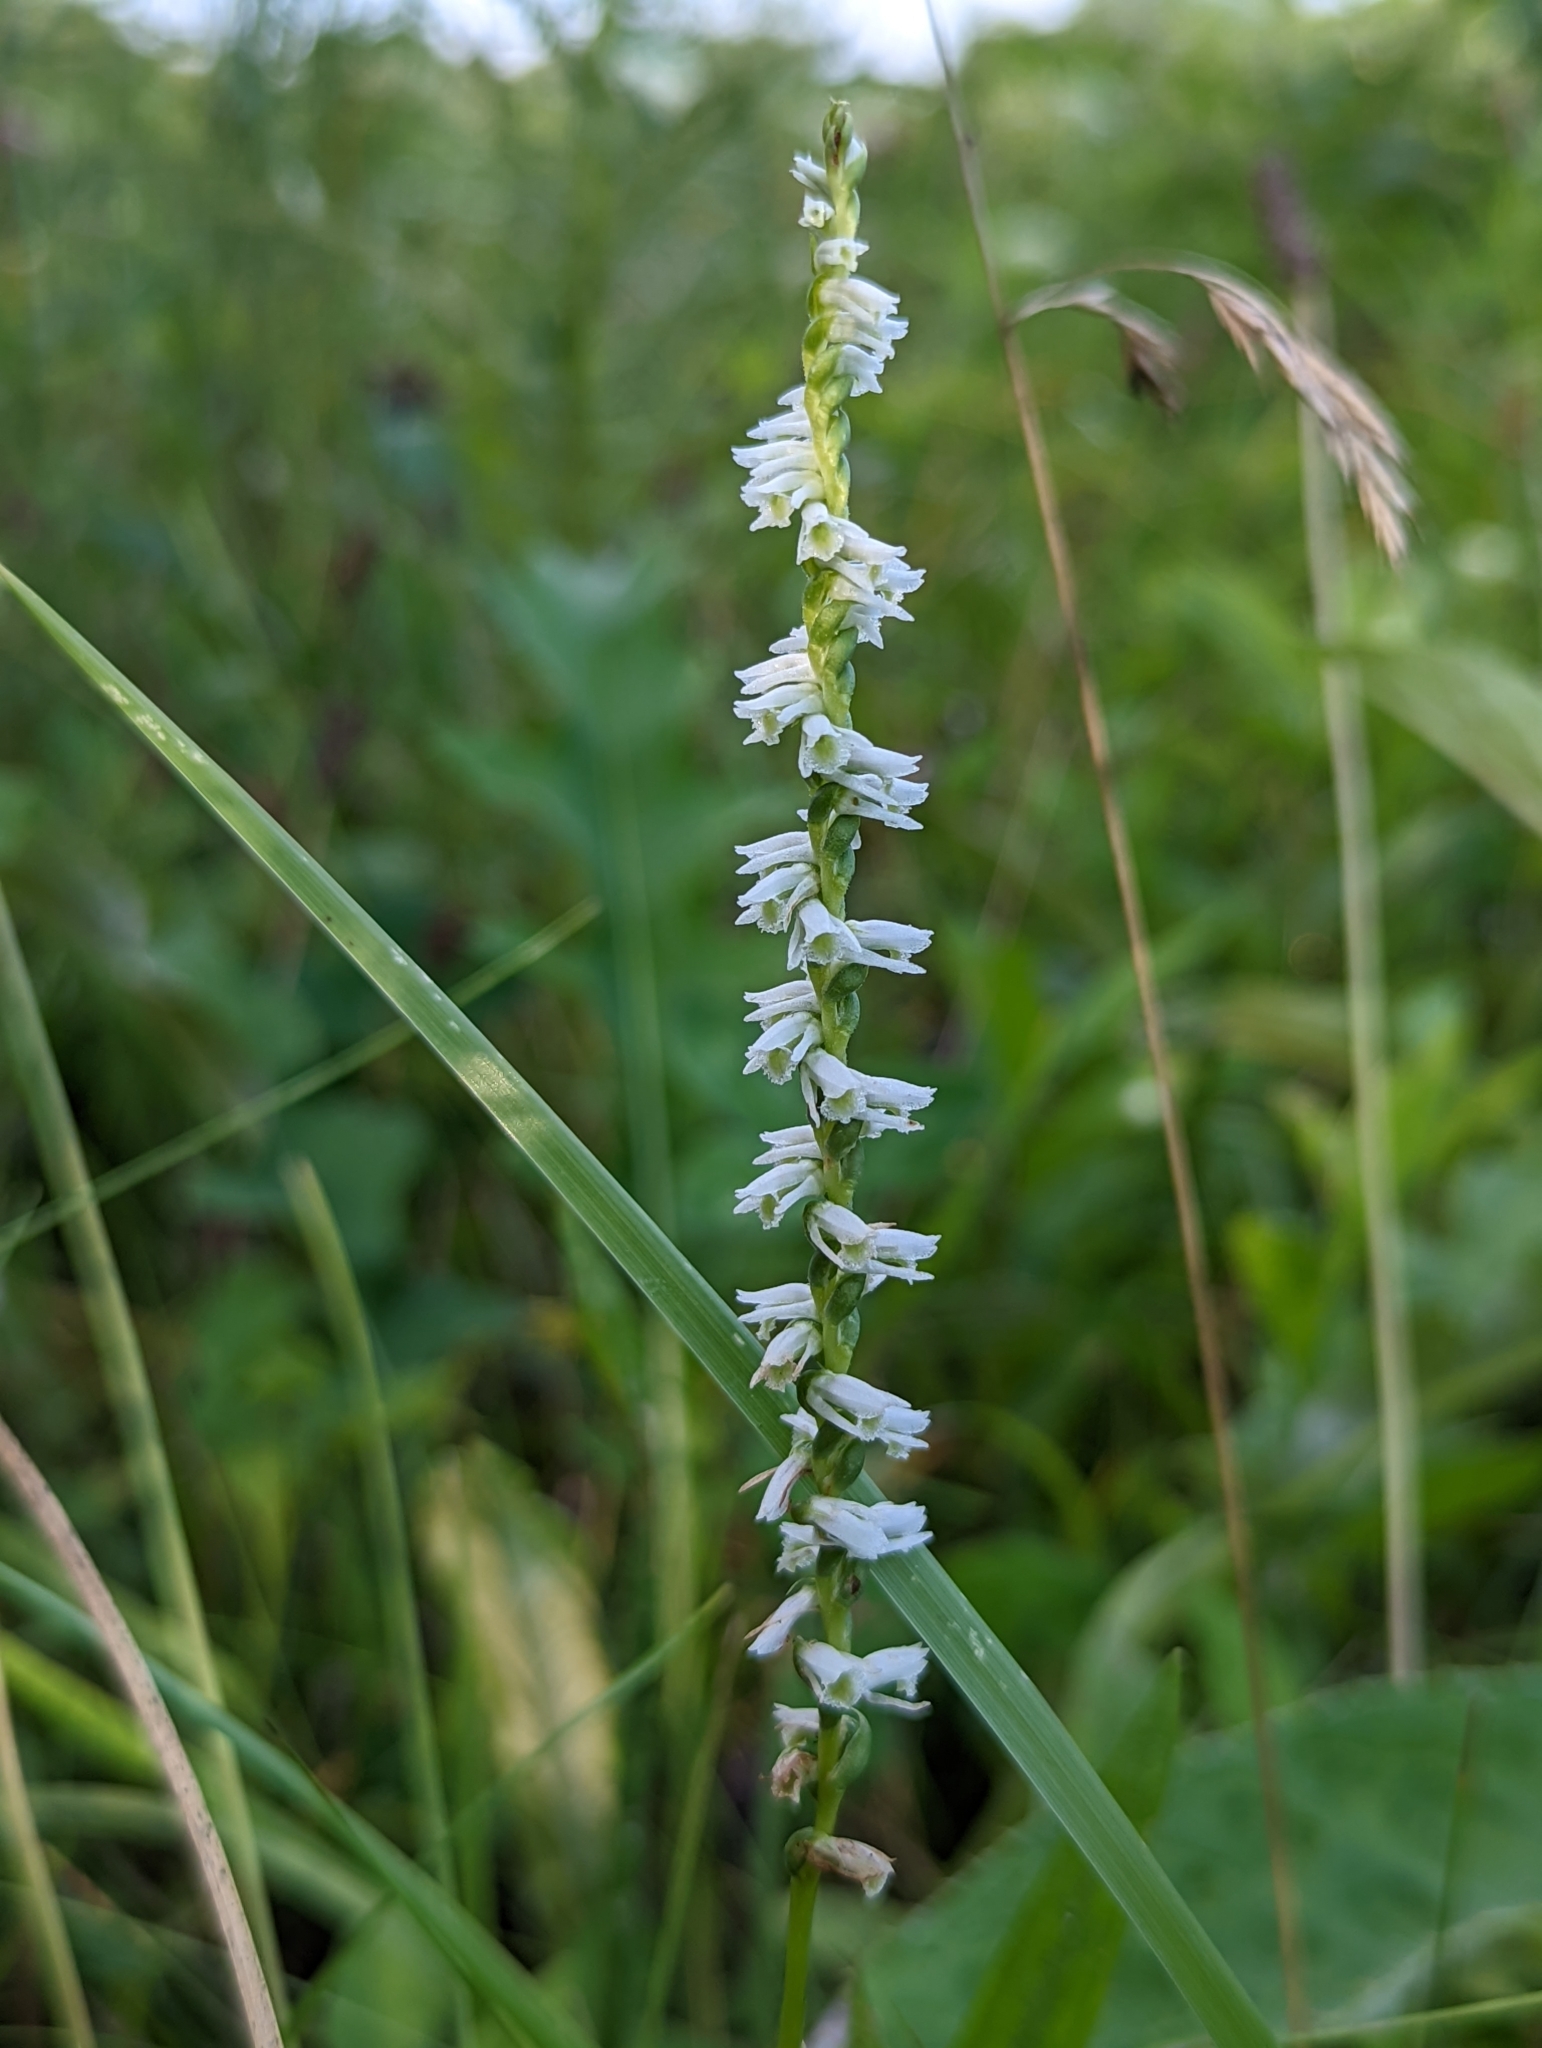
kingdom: Plantae
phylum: Tracheophyta
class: Liliopsida
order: Asparagales
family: Orchidaceae
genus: Spiranthes
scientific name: Spiranthes lacera
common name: Northern slender ladies'-tresses
